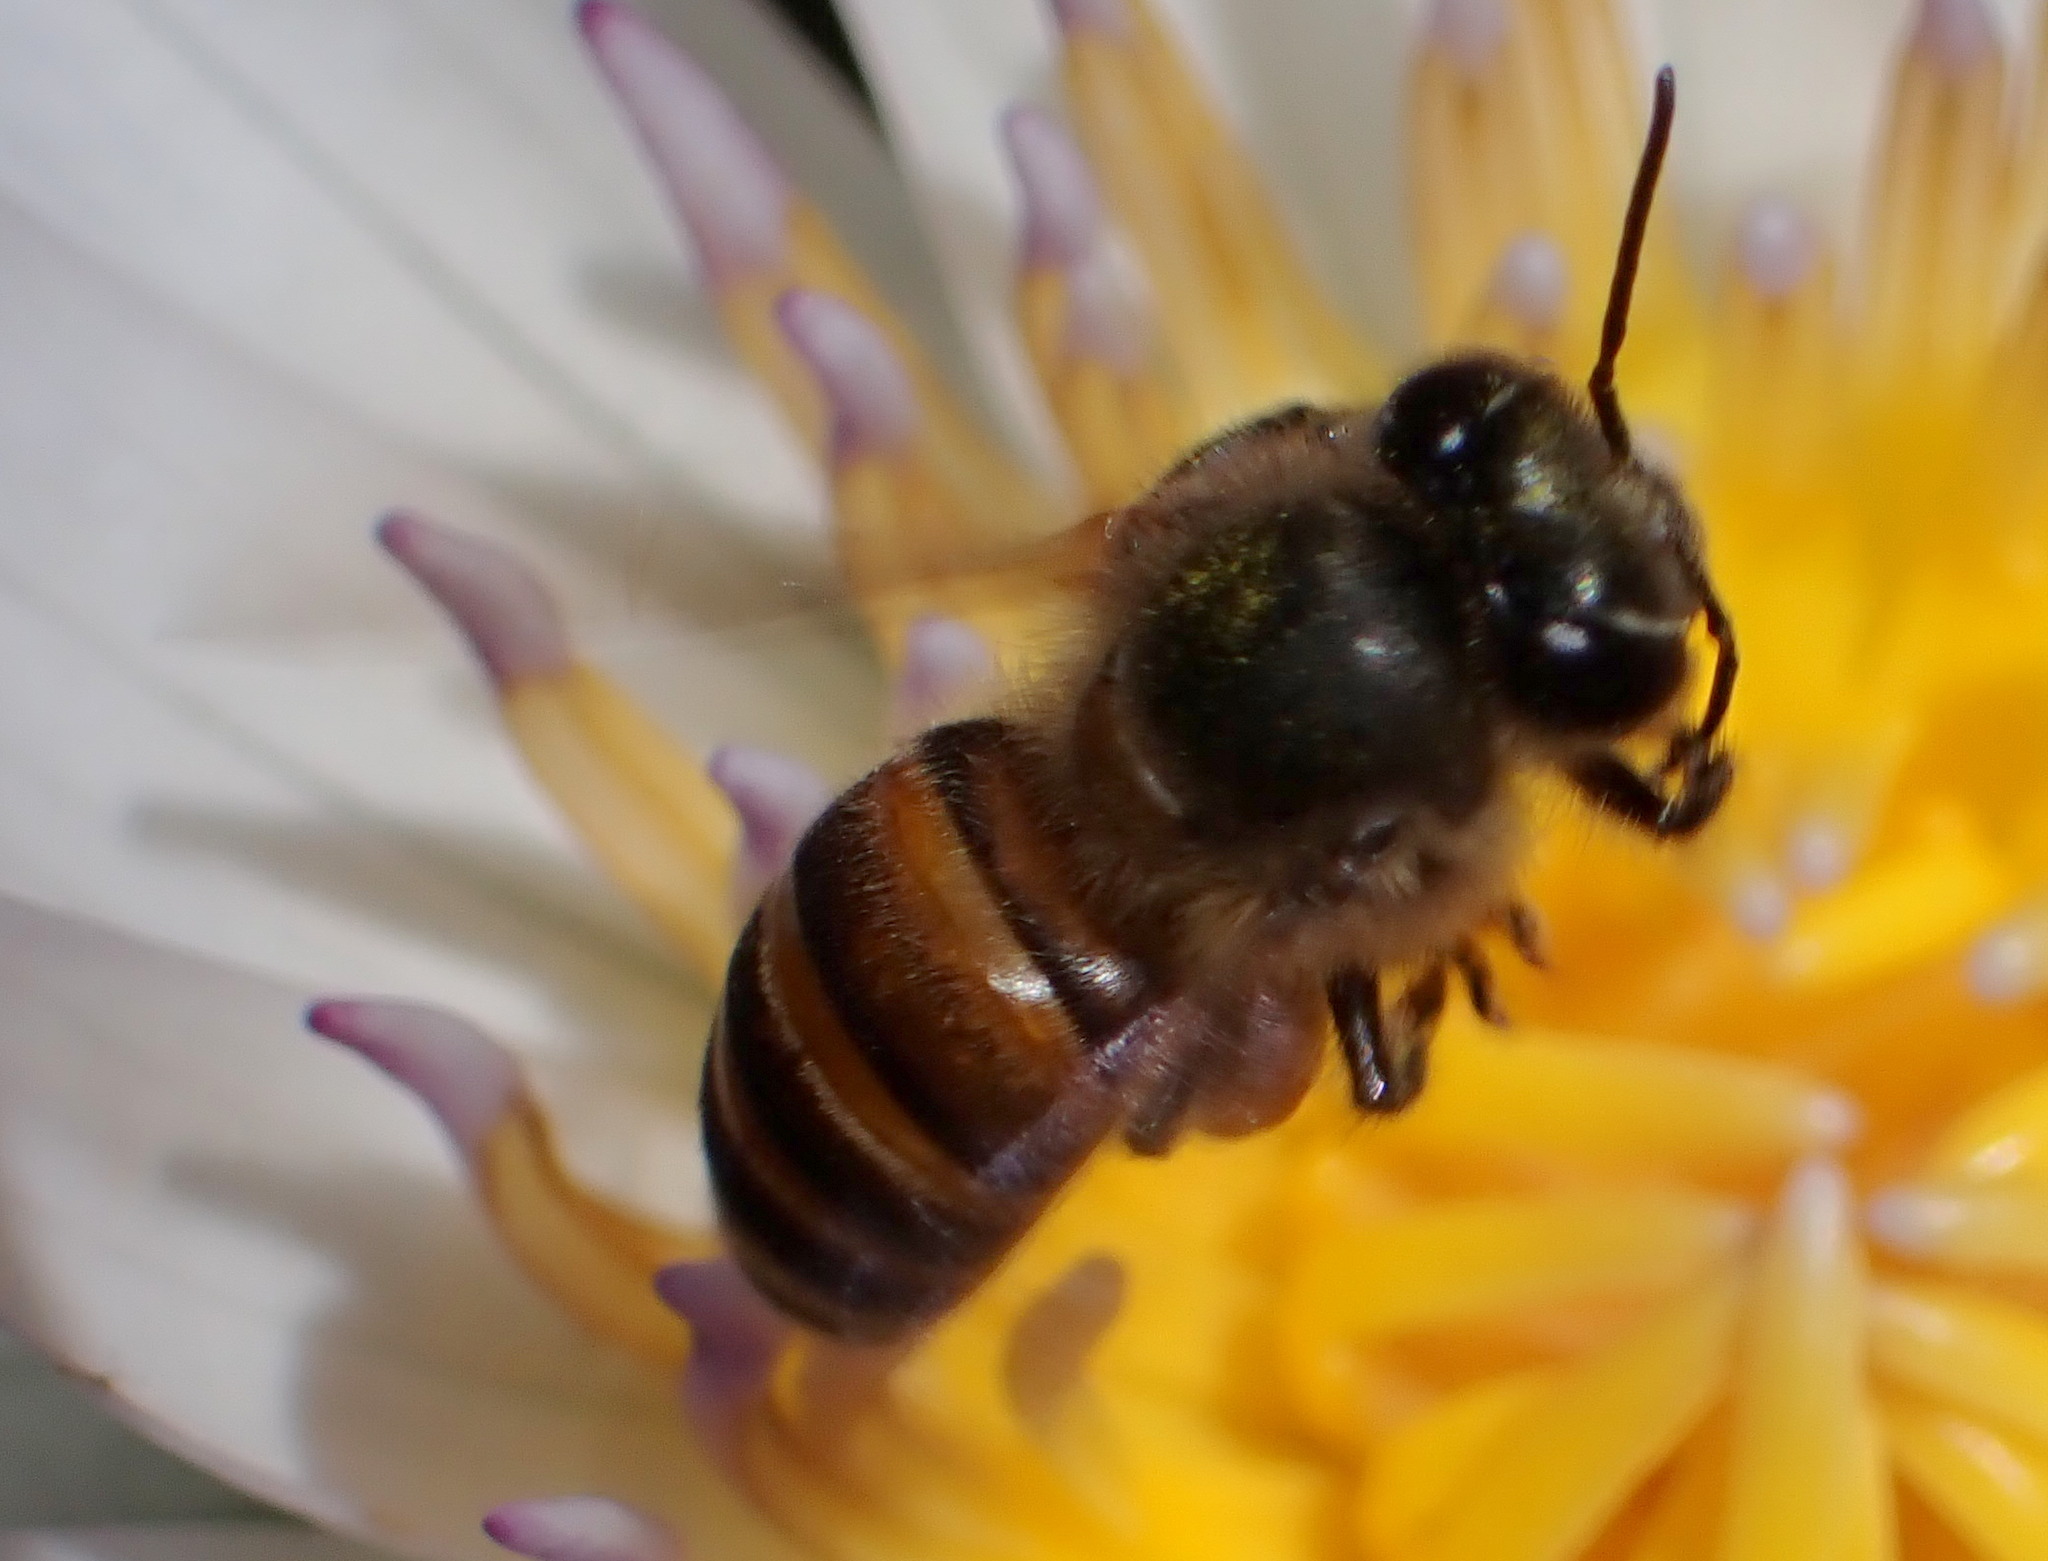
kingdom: Animalia
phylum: Arthropoda
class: Insecta
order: Hymenoptera
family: Apidae
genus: Apis
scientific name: Apis cerana
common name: Honey bee
